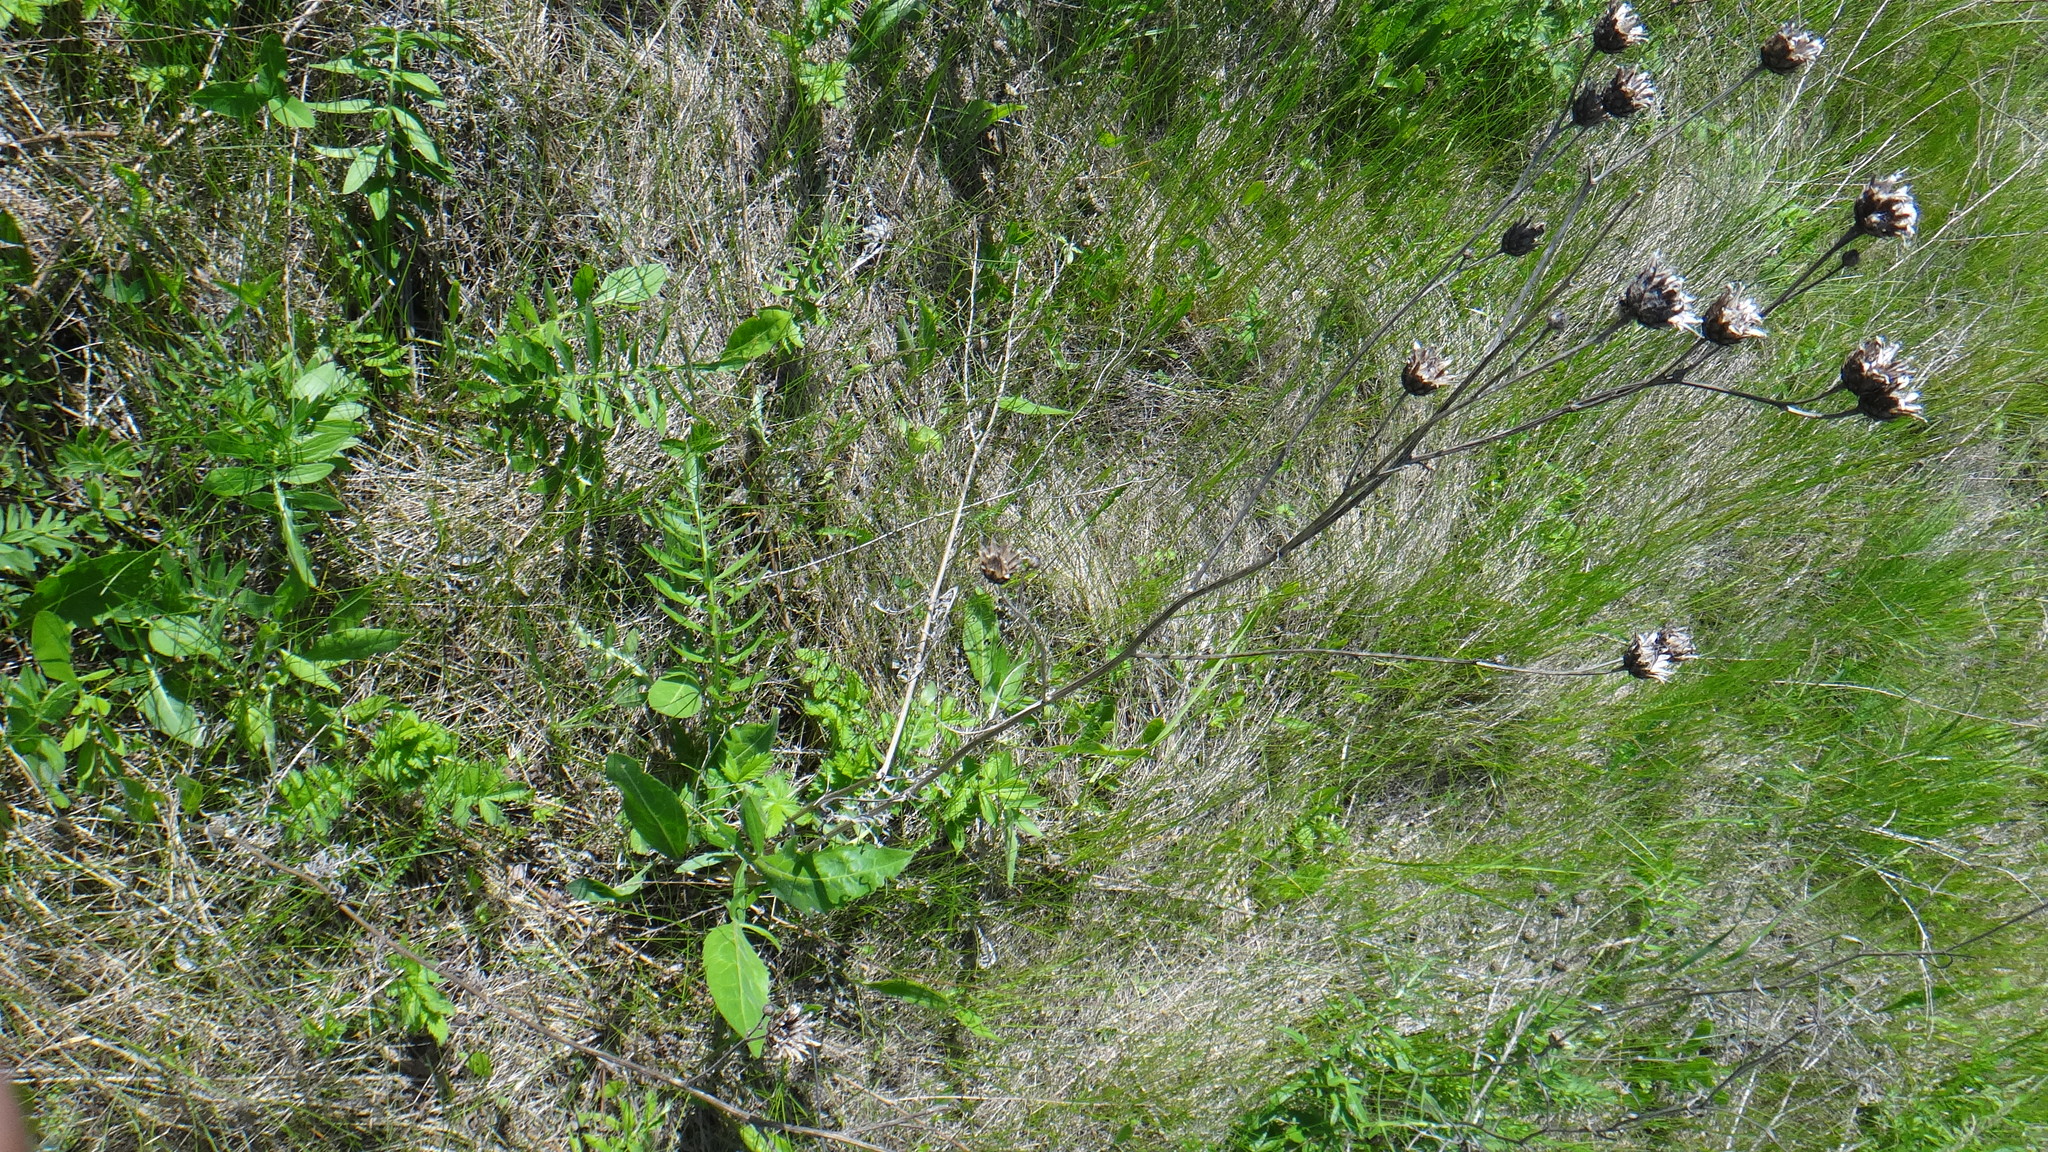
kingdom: Plantae
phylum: Tracheophyta
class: Magnoliopsida
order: Asterales
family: Asteraceae
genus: Centaurea
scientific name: Centaurea scabiosa
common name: Greater knapweed
